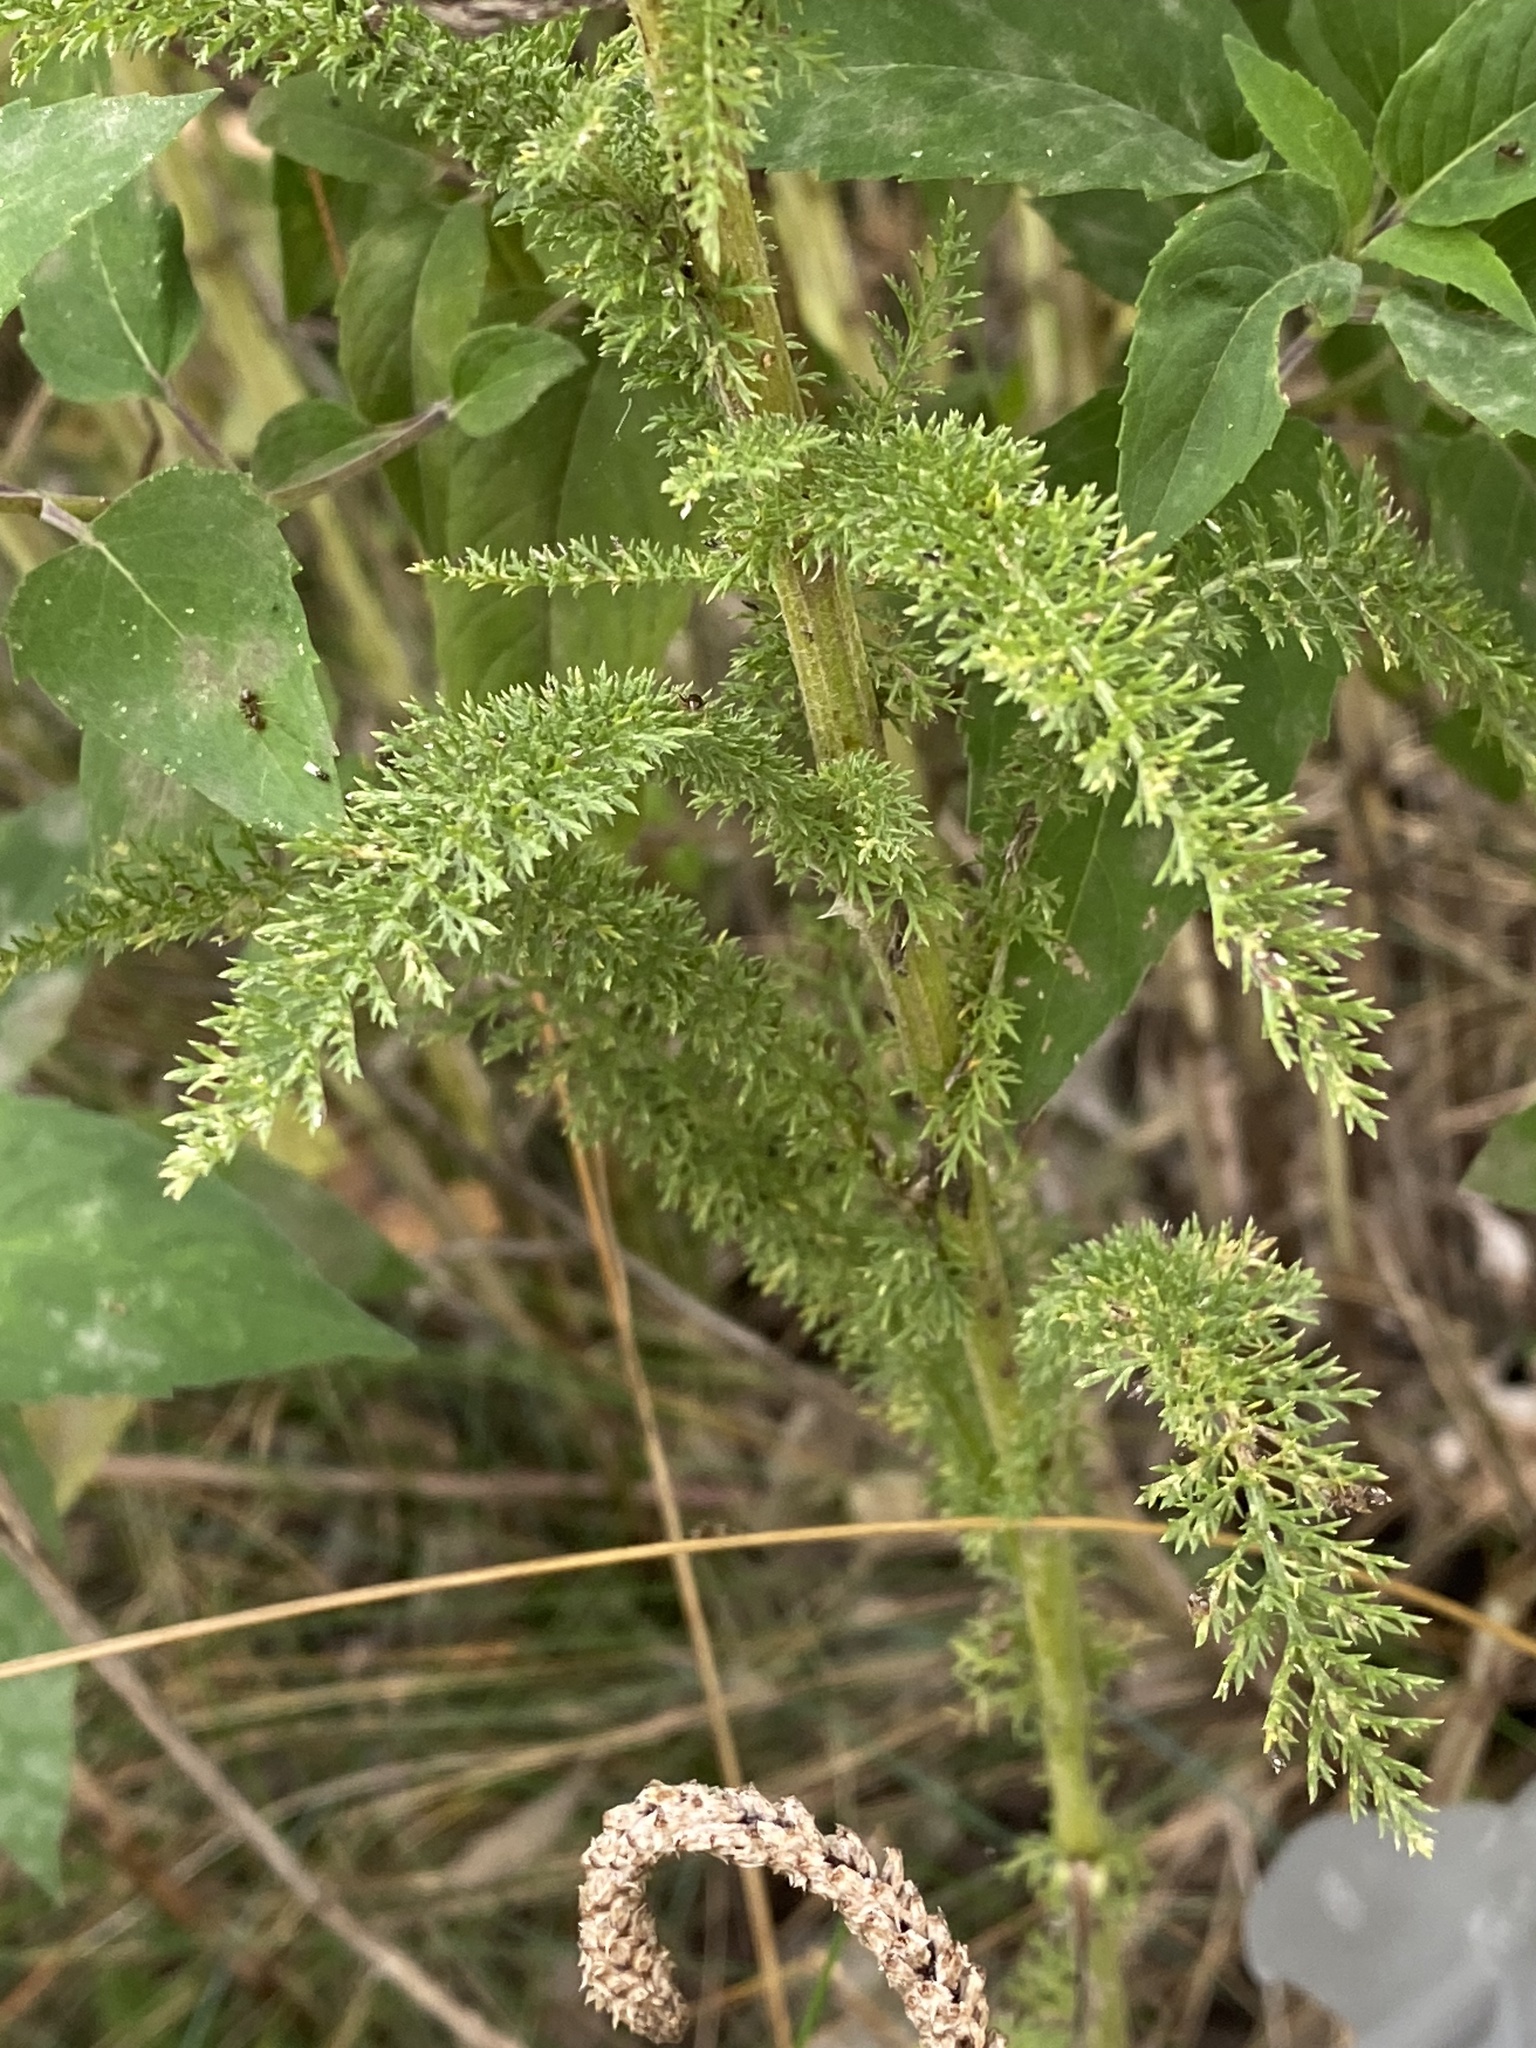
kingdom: Plantae
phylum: Tracheophyta
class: Magnoliopsida
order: Asterales
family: Asteraceae
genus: Achillea
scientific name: Achillea millefolium
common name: Yarrow
